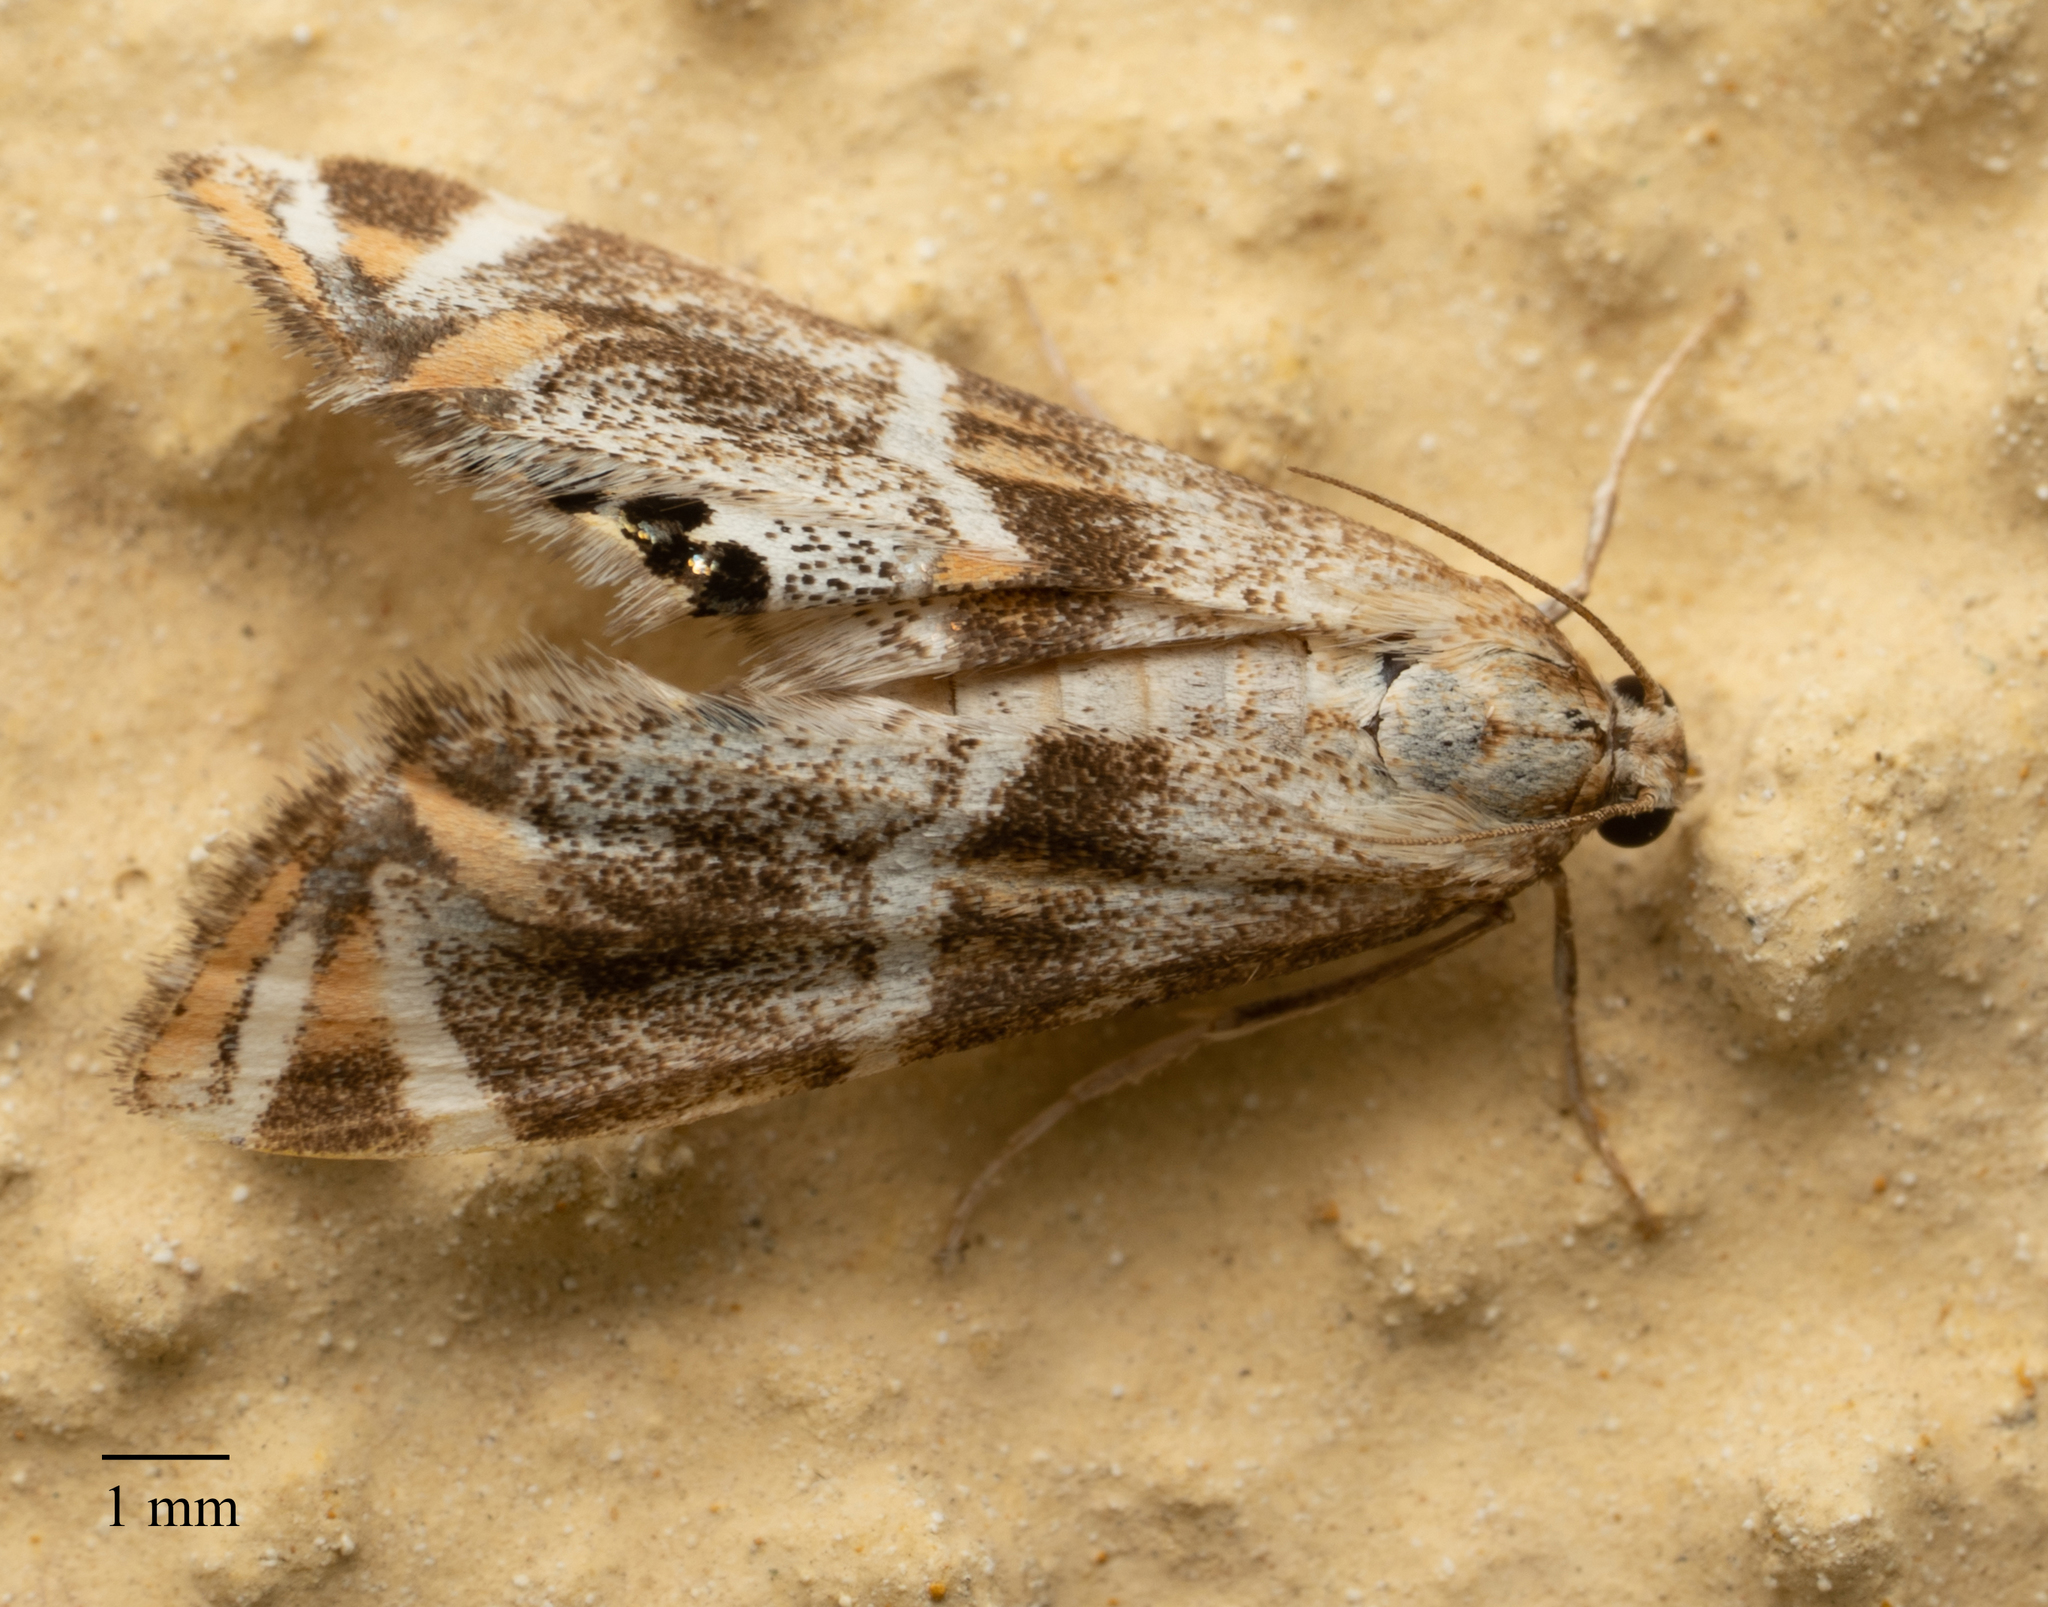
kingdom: Animalia
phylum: Arthropoda
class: Insecta
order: Lepidoptera
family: Crambidae
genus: Petrophila
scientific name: Petrophila jaliscalis
